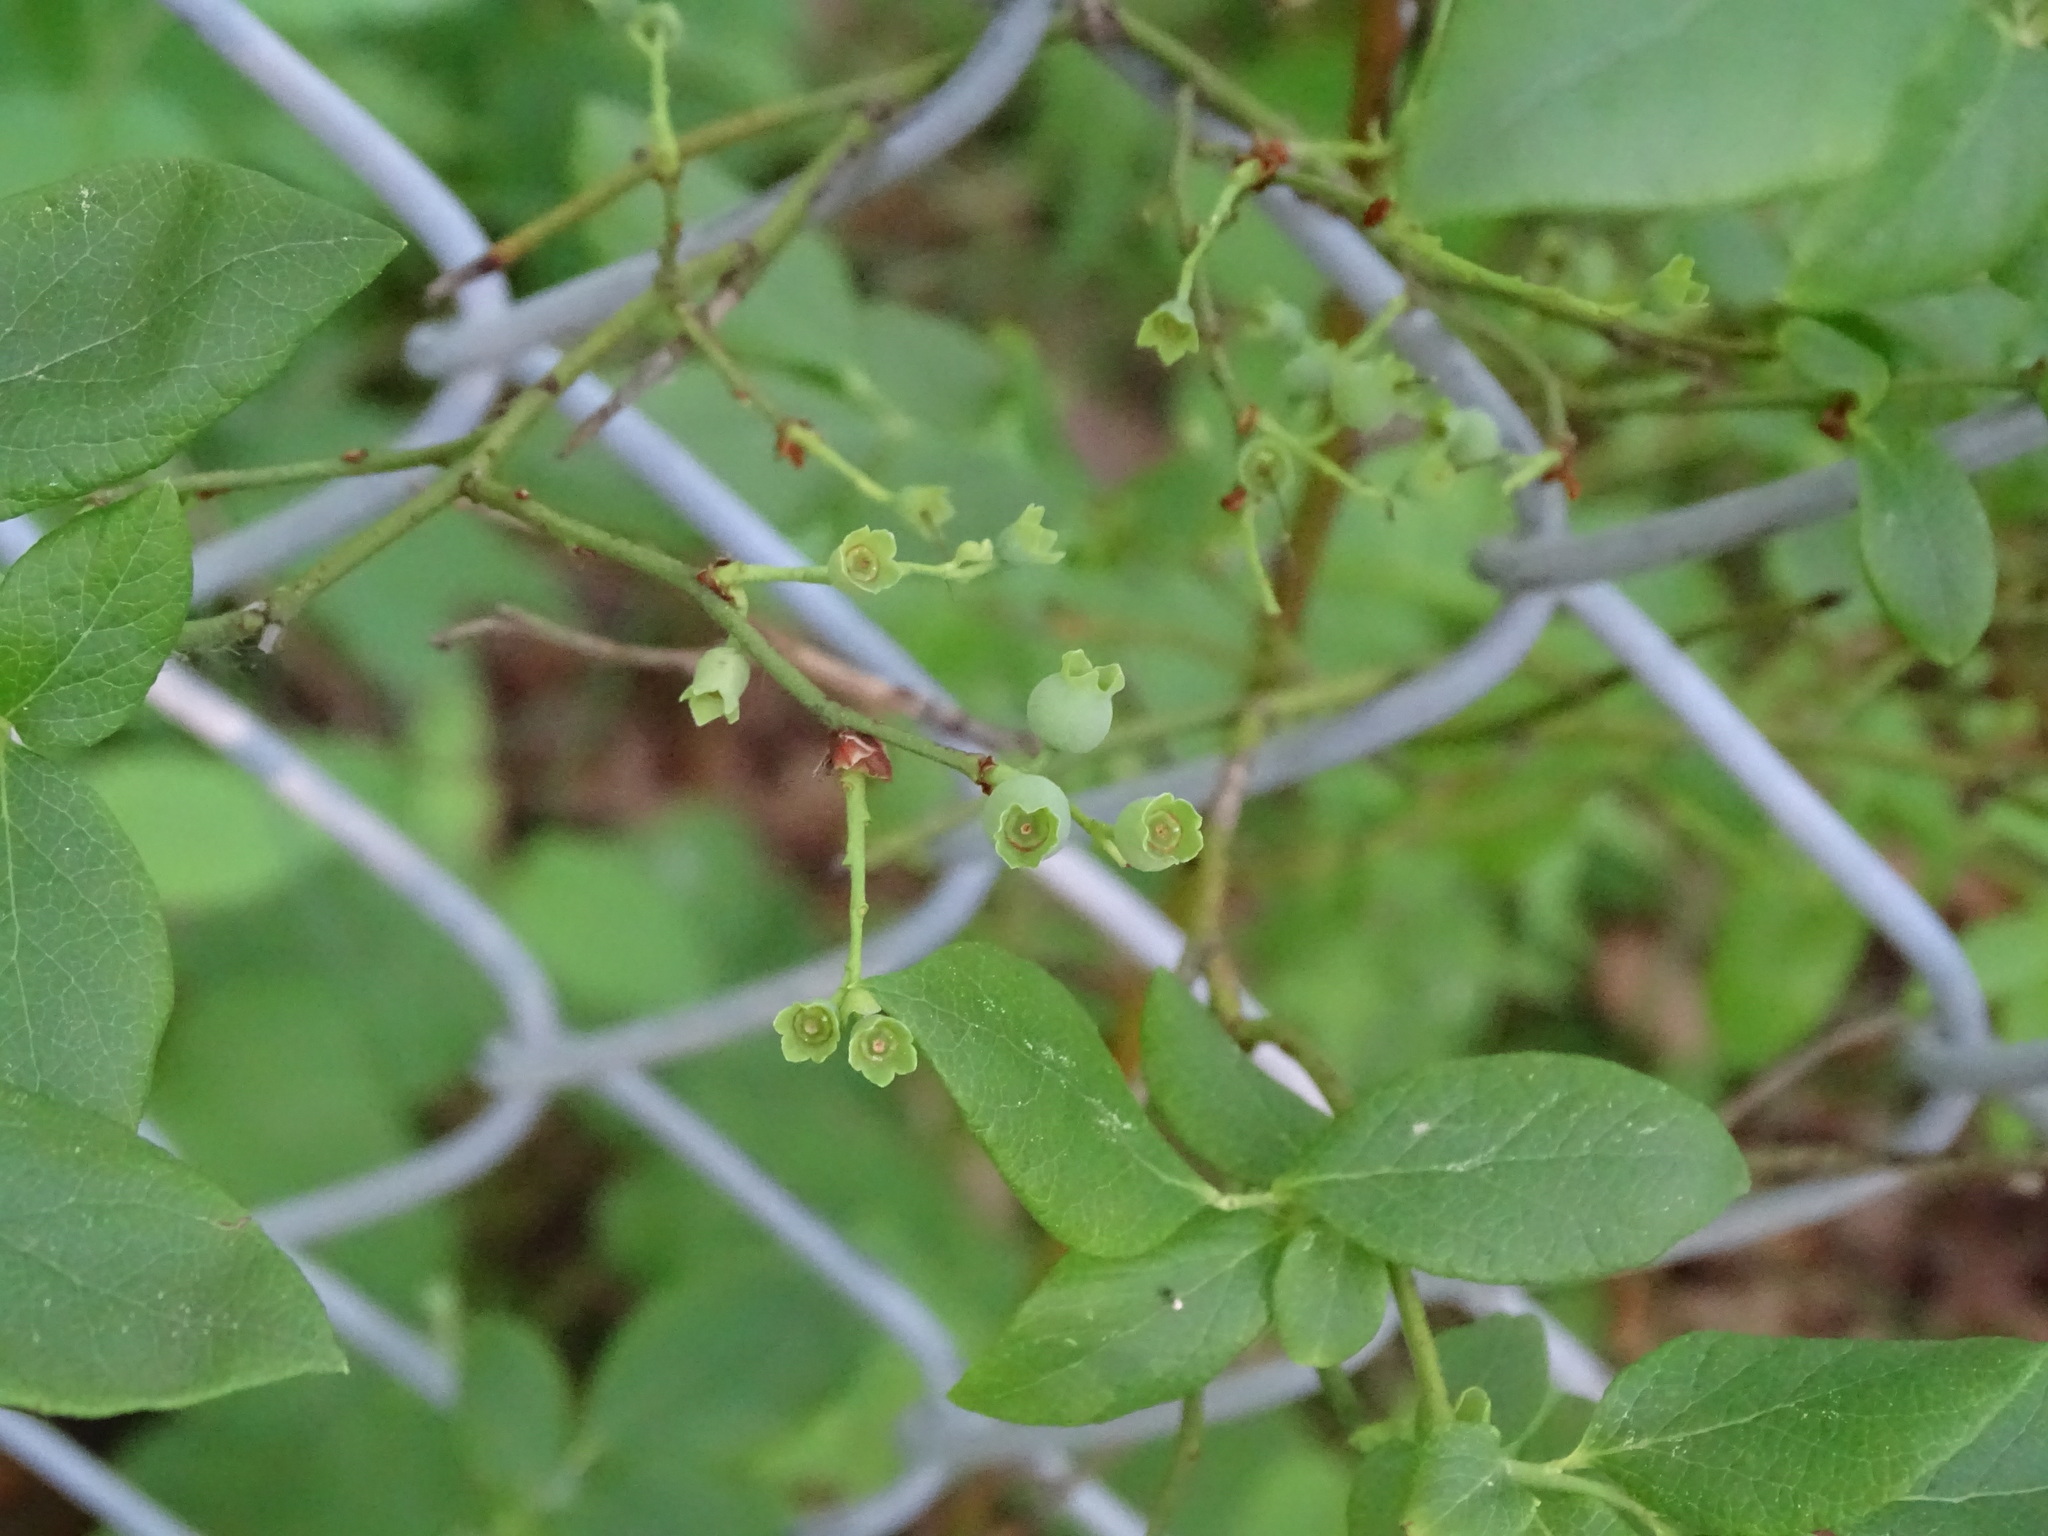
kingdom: Plantae
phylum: Tracheophyta
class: Magnoliopsida
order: Ericales
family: Ericaceae
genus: Vaccinium
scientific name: Vaccinium angustifolium
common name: Early lowbush blueberry
